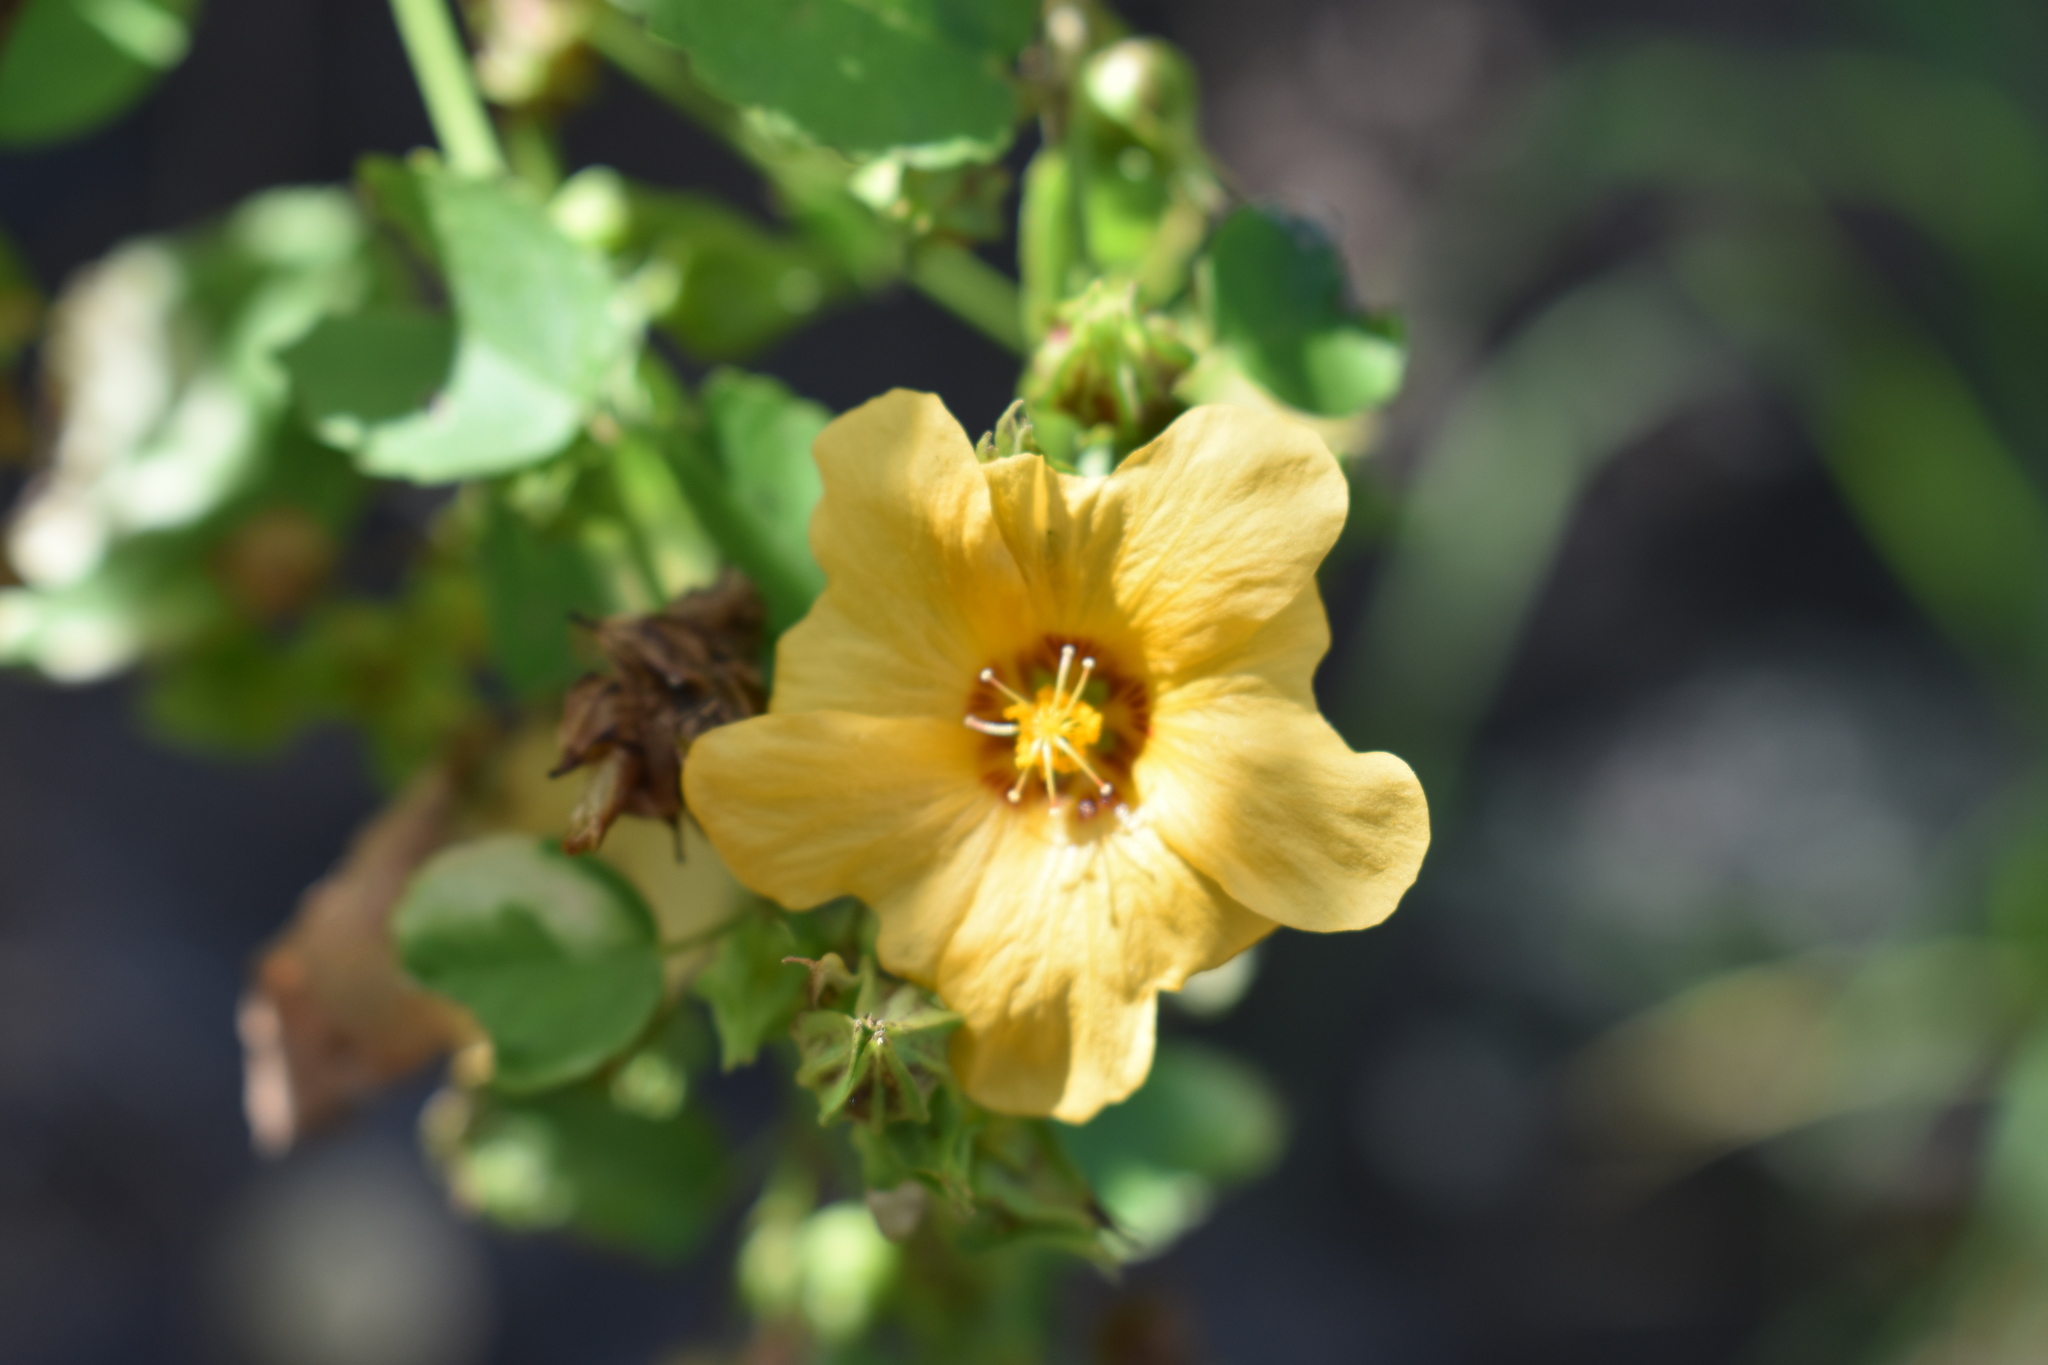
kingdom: Plantae
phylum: Tracheophyta
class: Magnoliopsida
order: Malvales
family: Malvaceae
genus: Sida
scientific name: Sida fallax
